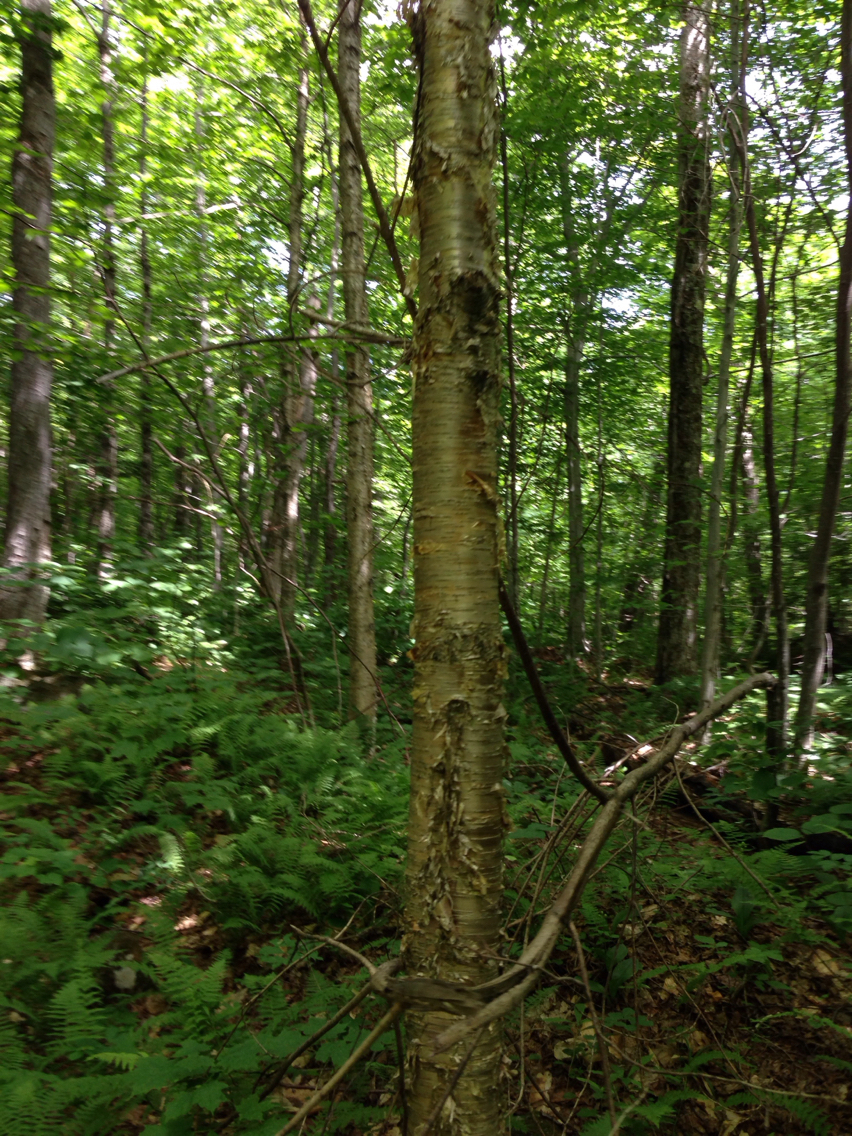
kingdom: Plantae
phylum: Tracheophyta
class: Magnoliopsida
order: Fagales
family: Betulaceae
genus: Betula
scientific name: Betula alleghaniensis
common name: Yellow birch
